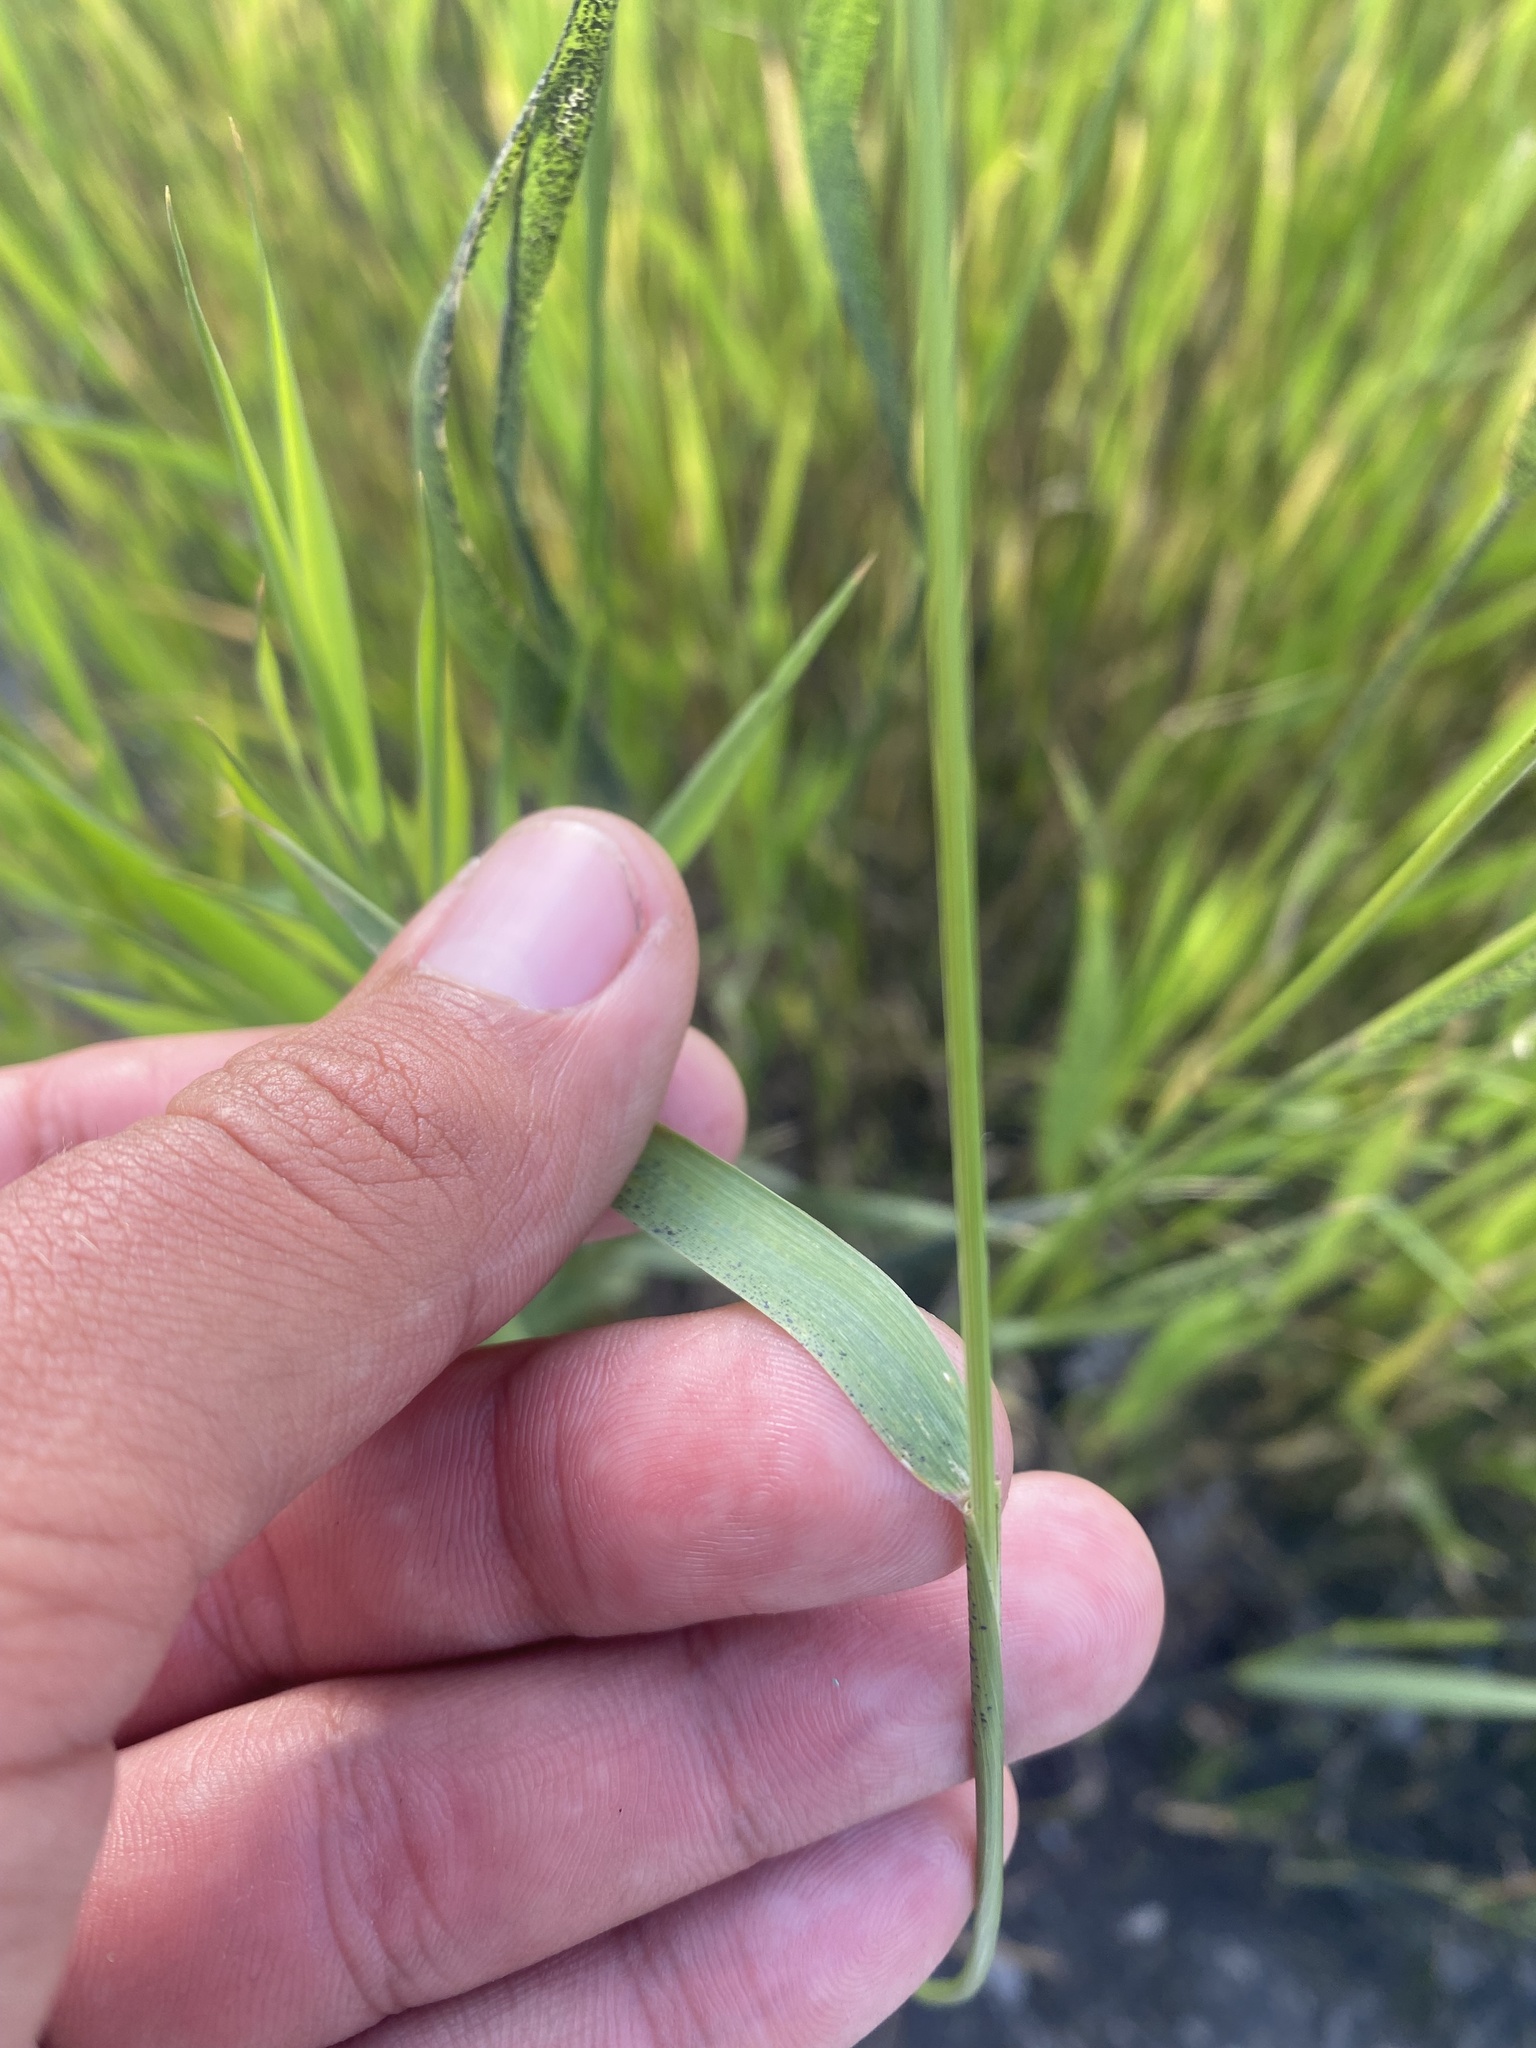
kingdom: Plantae
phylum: Tracheophyta
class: Liliopsida
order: Poales
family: Poaceae
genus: Elymus
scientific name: Elymus violaceus
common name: Arctic wheatgrass
